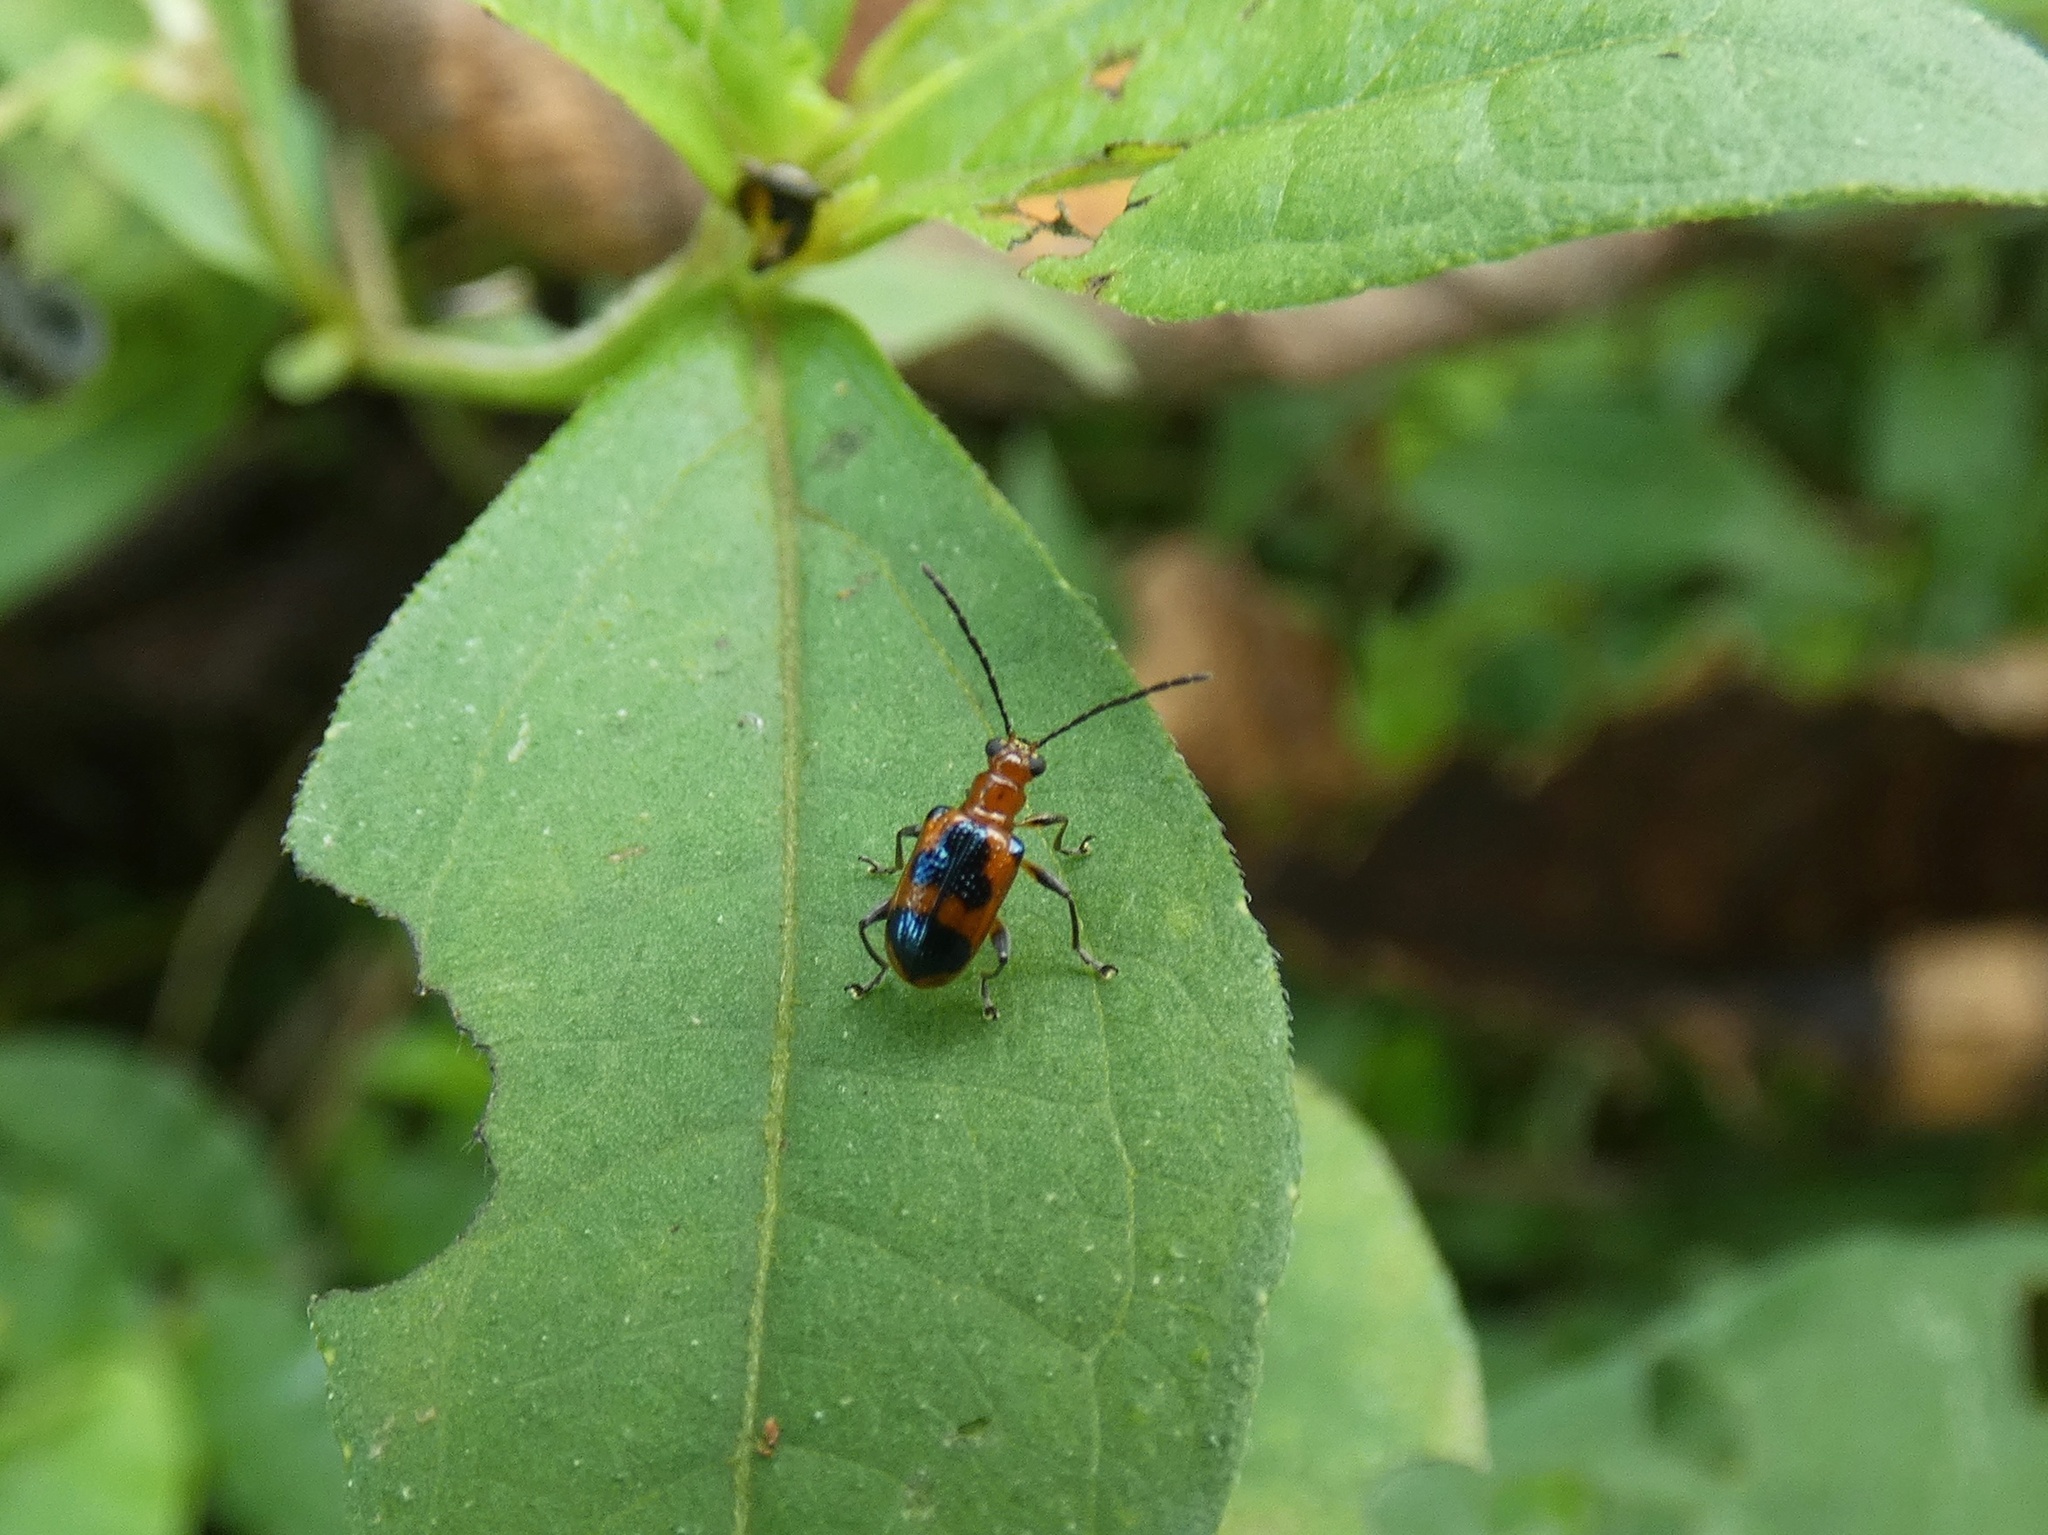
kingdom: Animalia
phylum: Arthropoda
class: Insecta
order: Coleoptera
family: Chrysomelidae
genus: Neolema
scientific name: Neolema dorsalis
